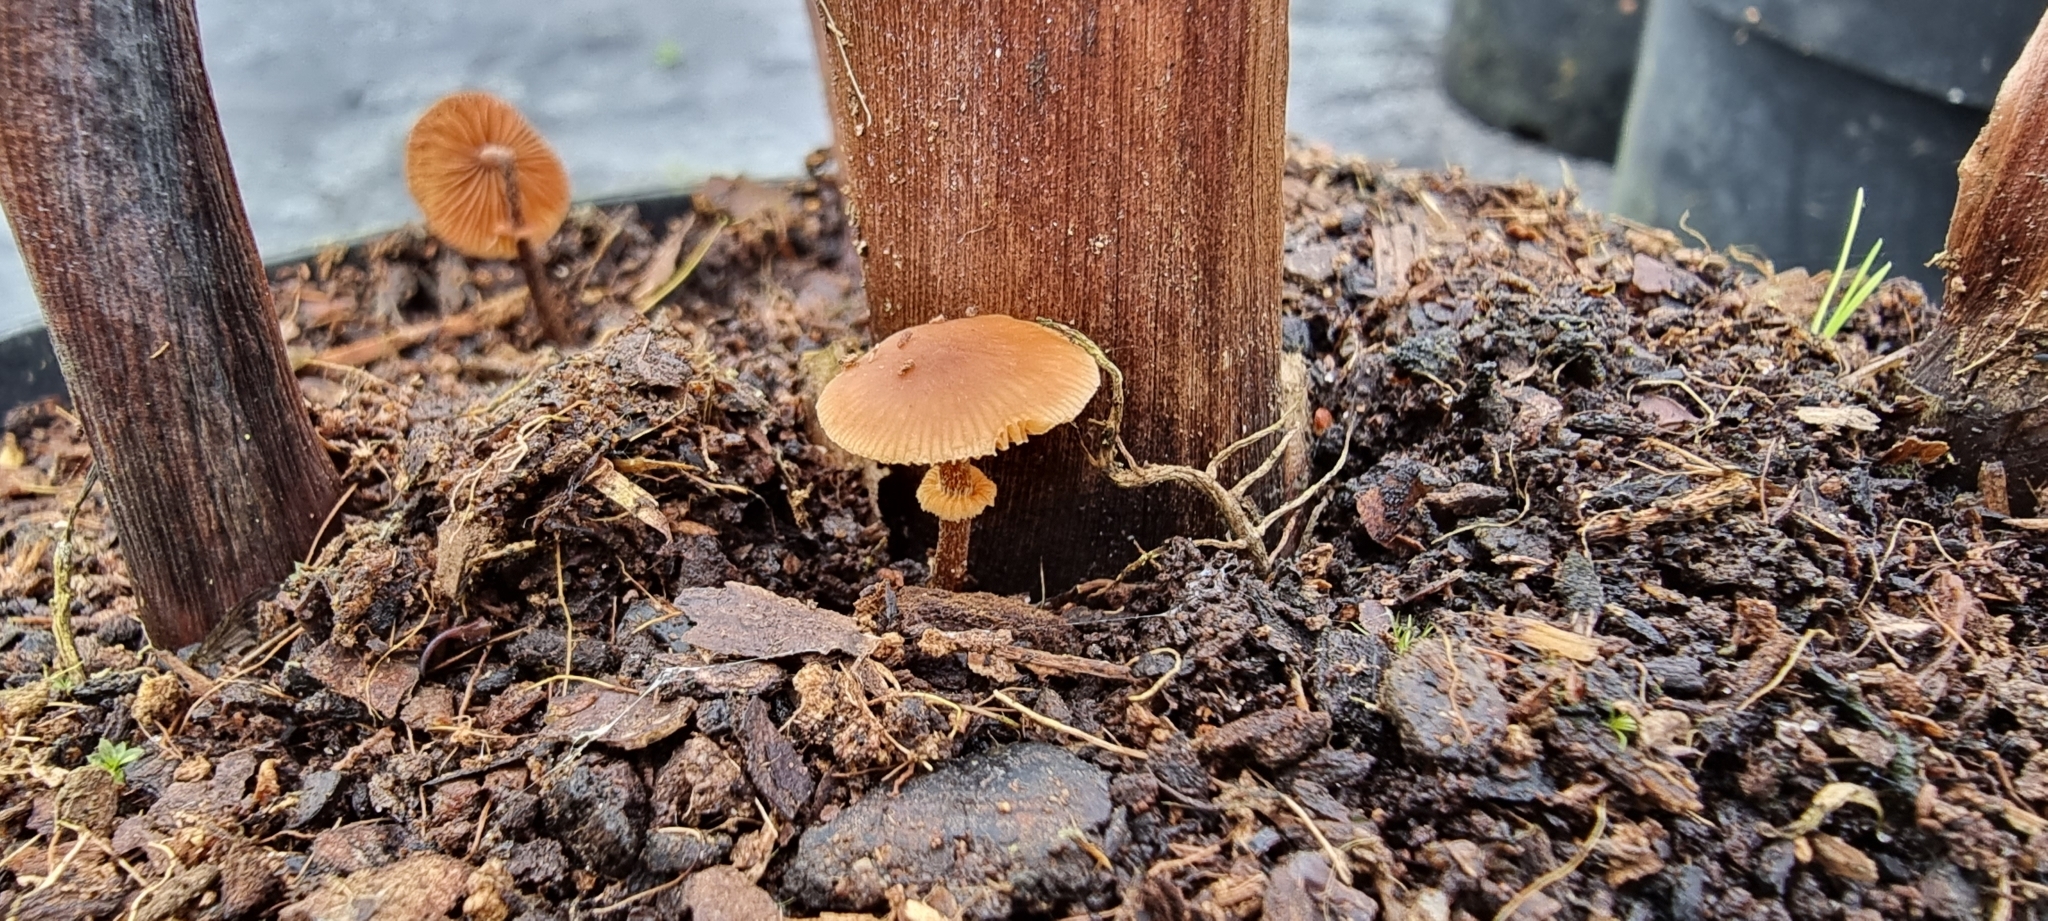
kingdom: Fungi
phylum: Basidiomycota
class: Agaricomycetes
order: Agaricales
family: Bolbitiaceae
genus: Conocybe
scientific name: Conocybe rugosa
